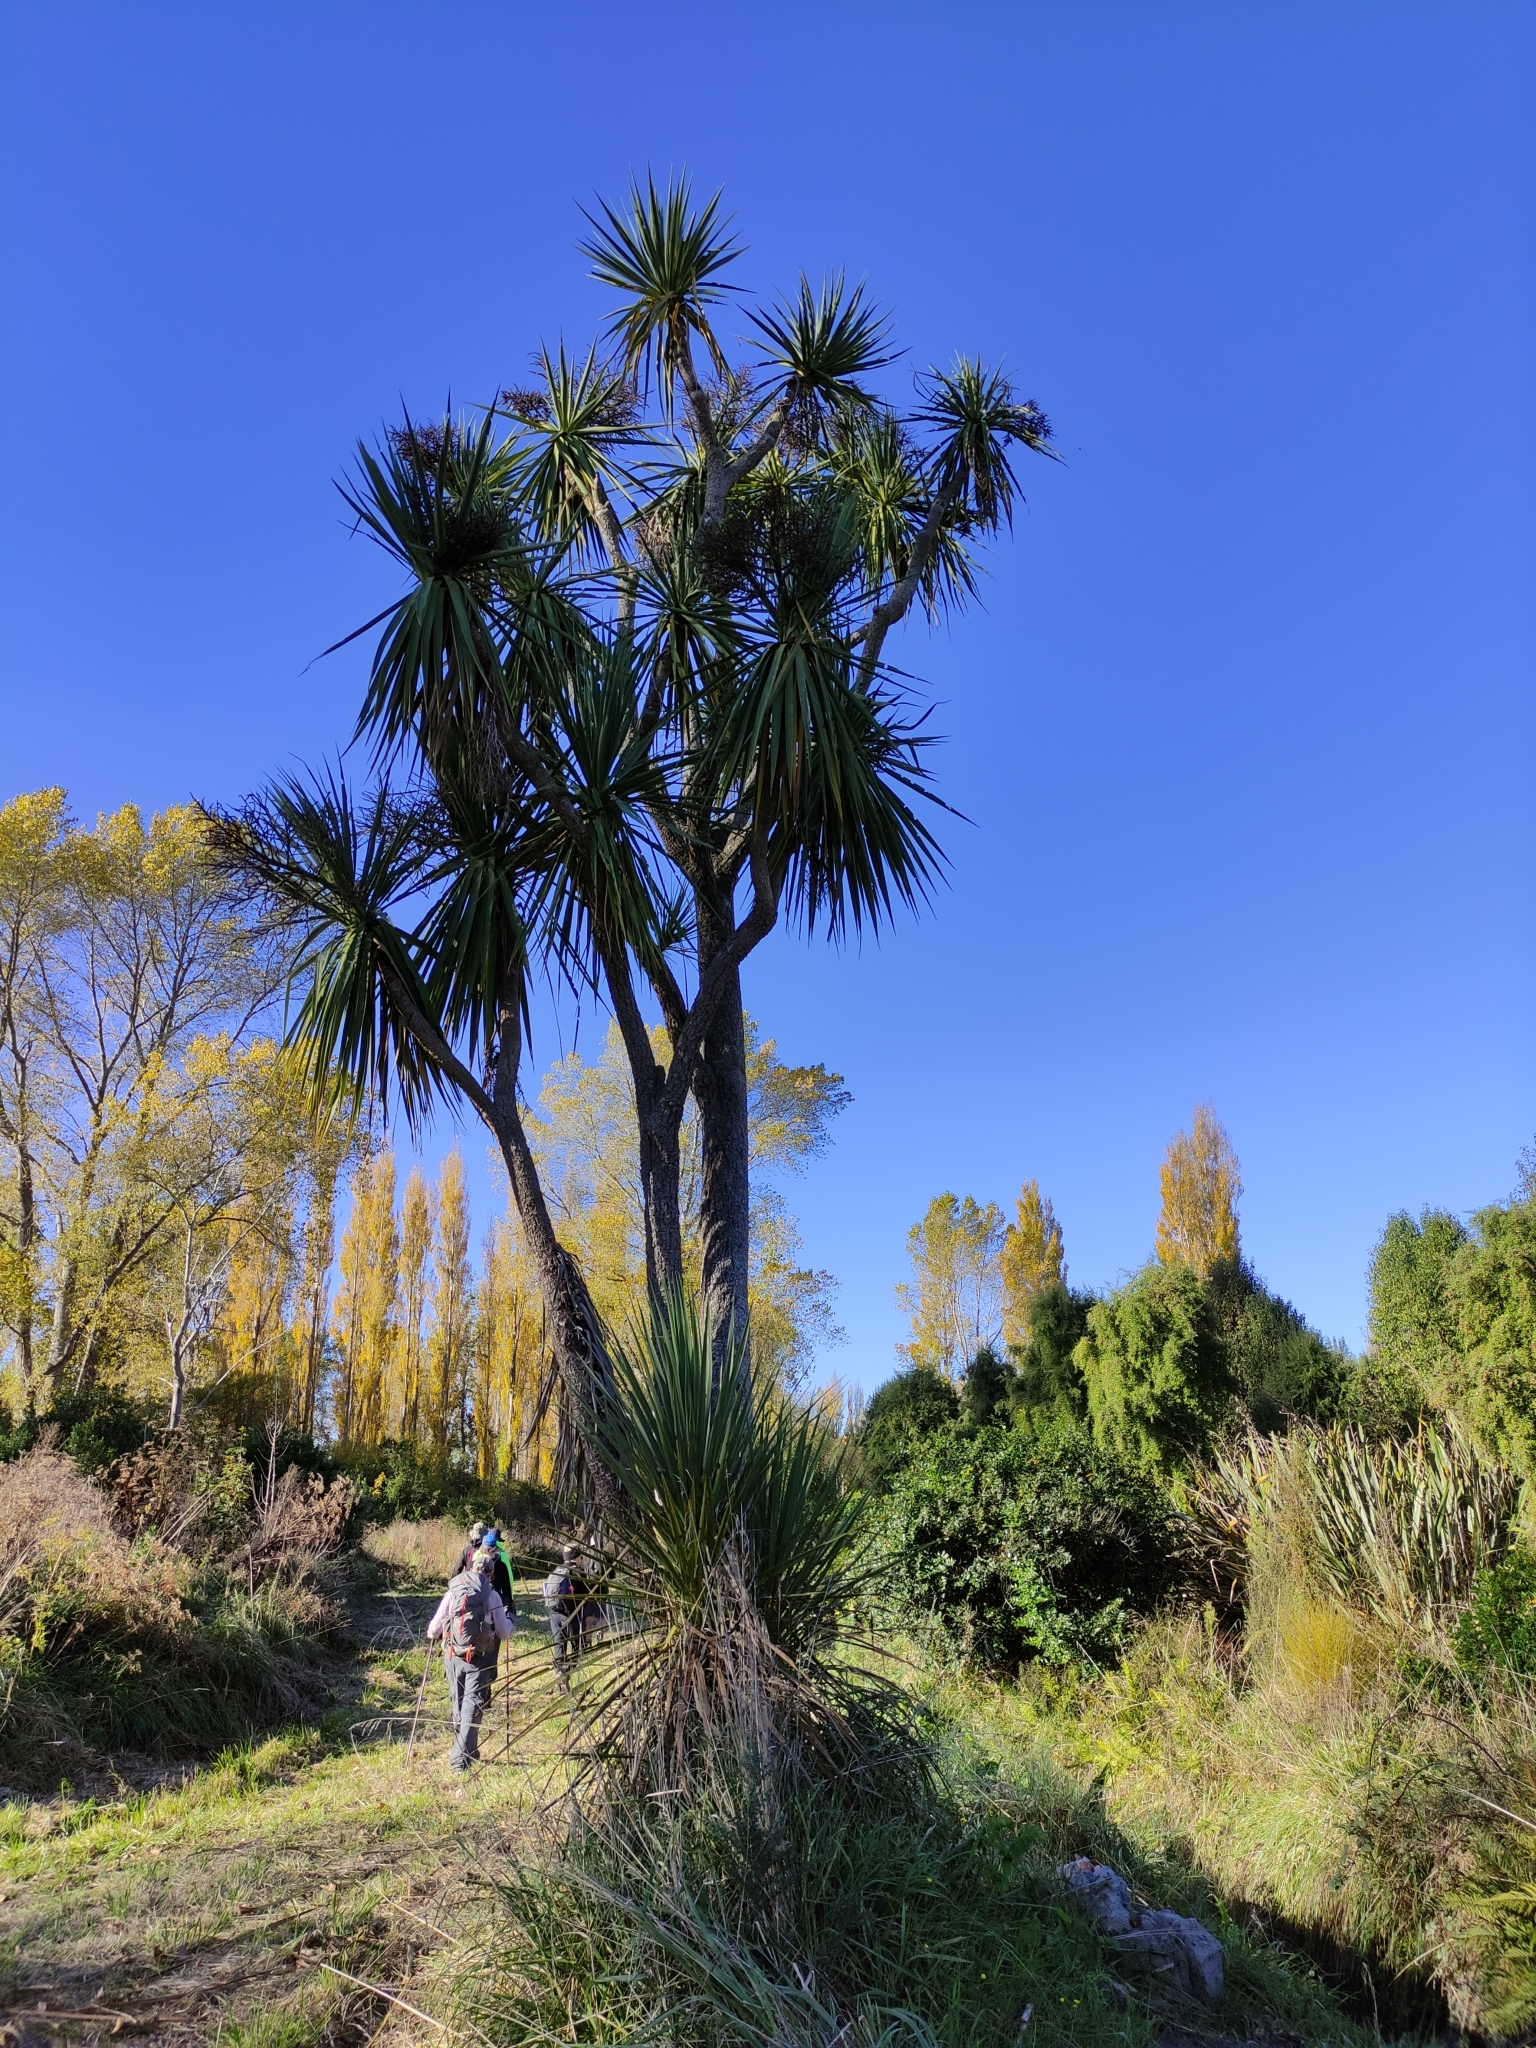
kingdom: Plantae
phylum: Tracheophyta
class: Liliopsida
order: Asparagales
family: Asparagaceae
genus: Cordyline
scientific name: Cordyline australis
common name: Cabbage-palm
